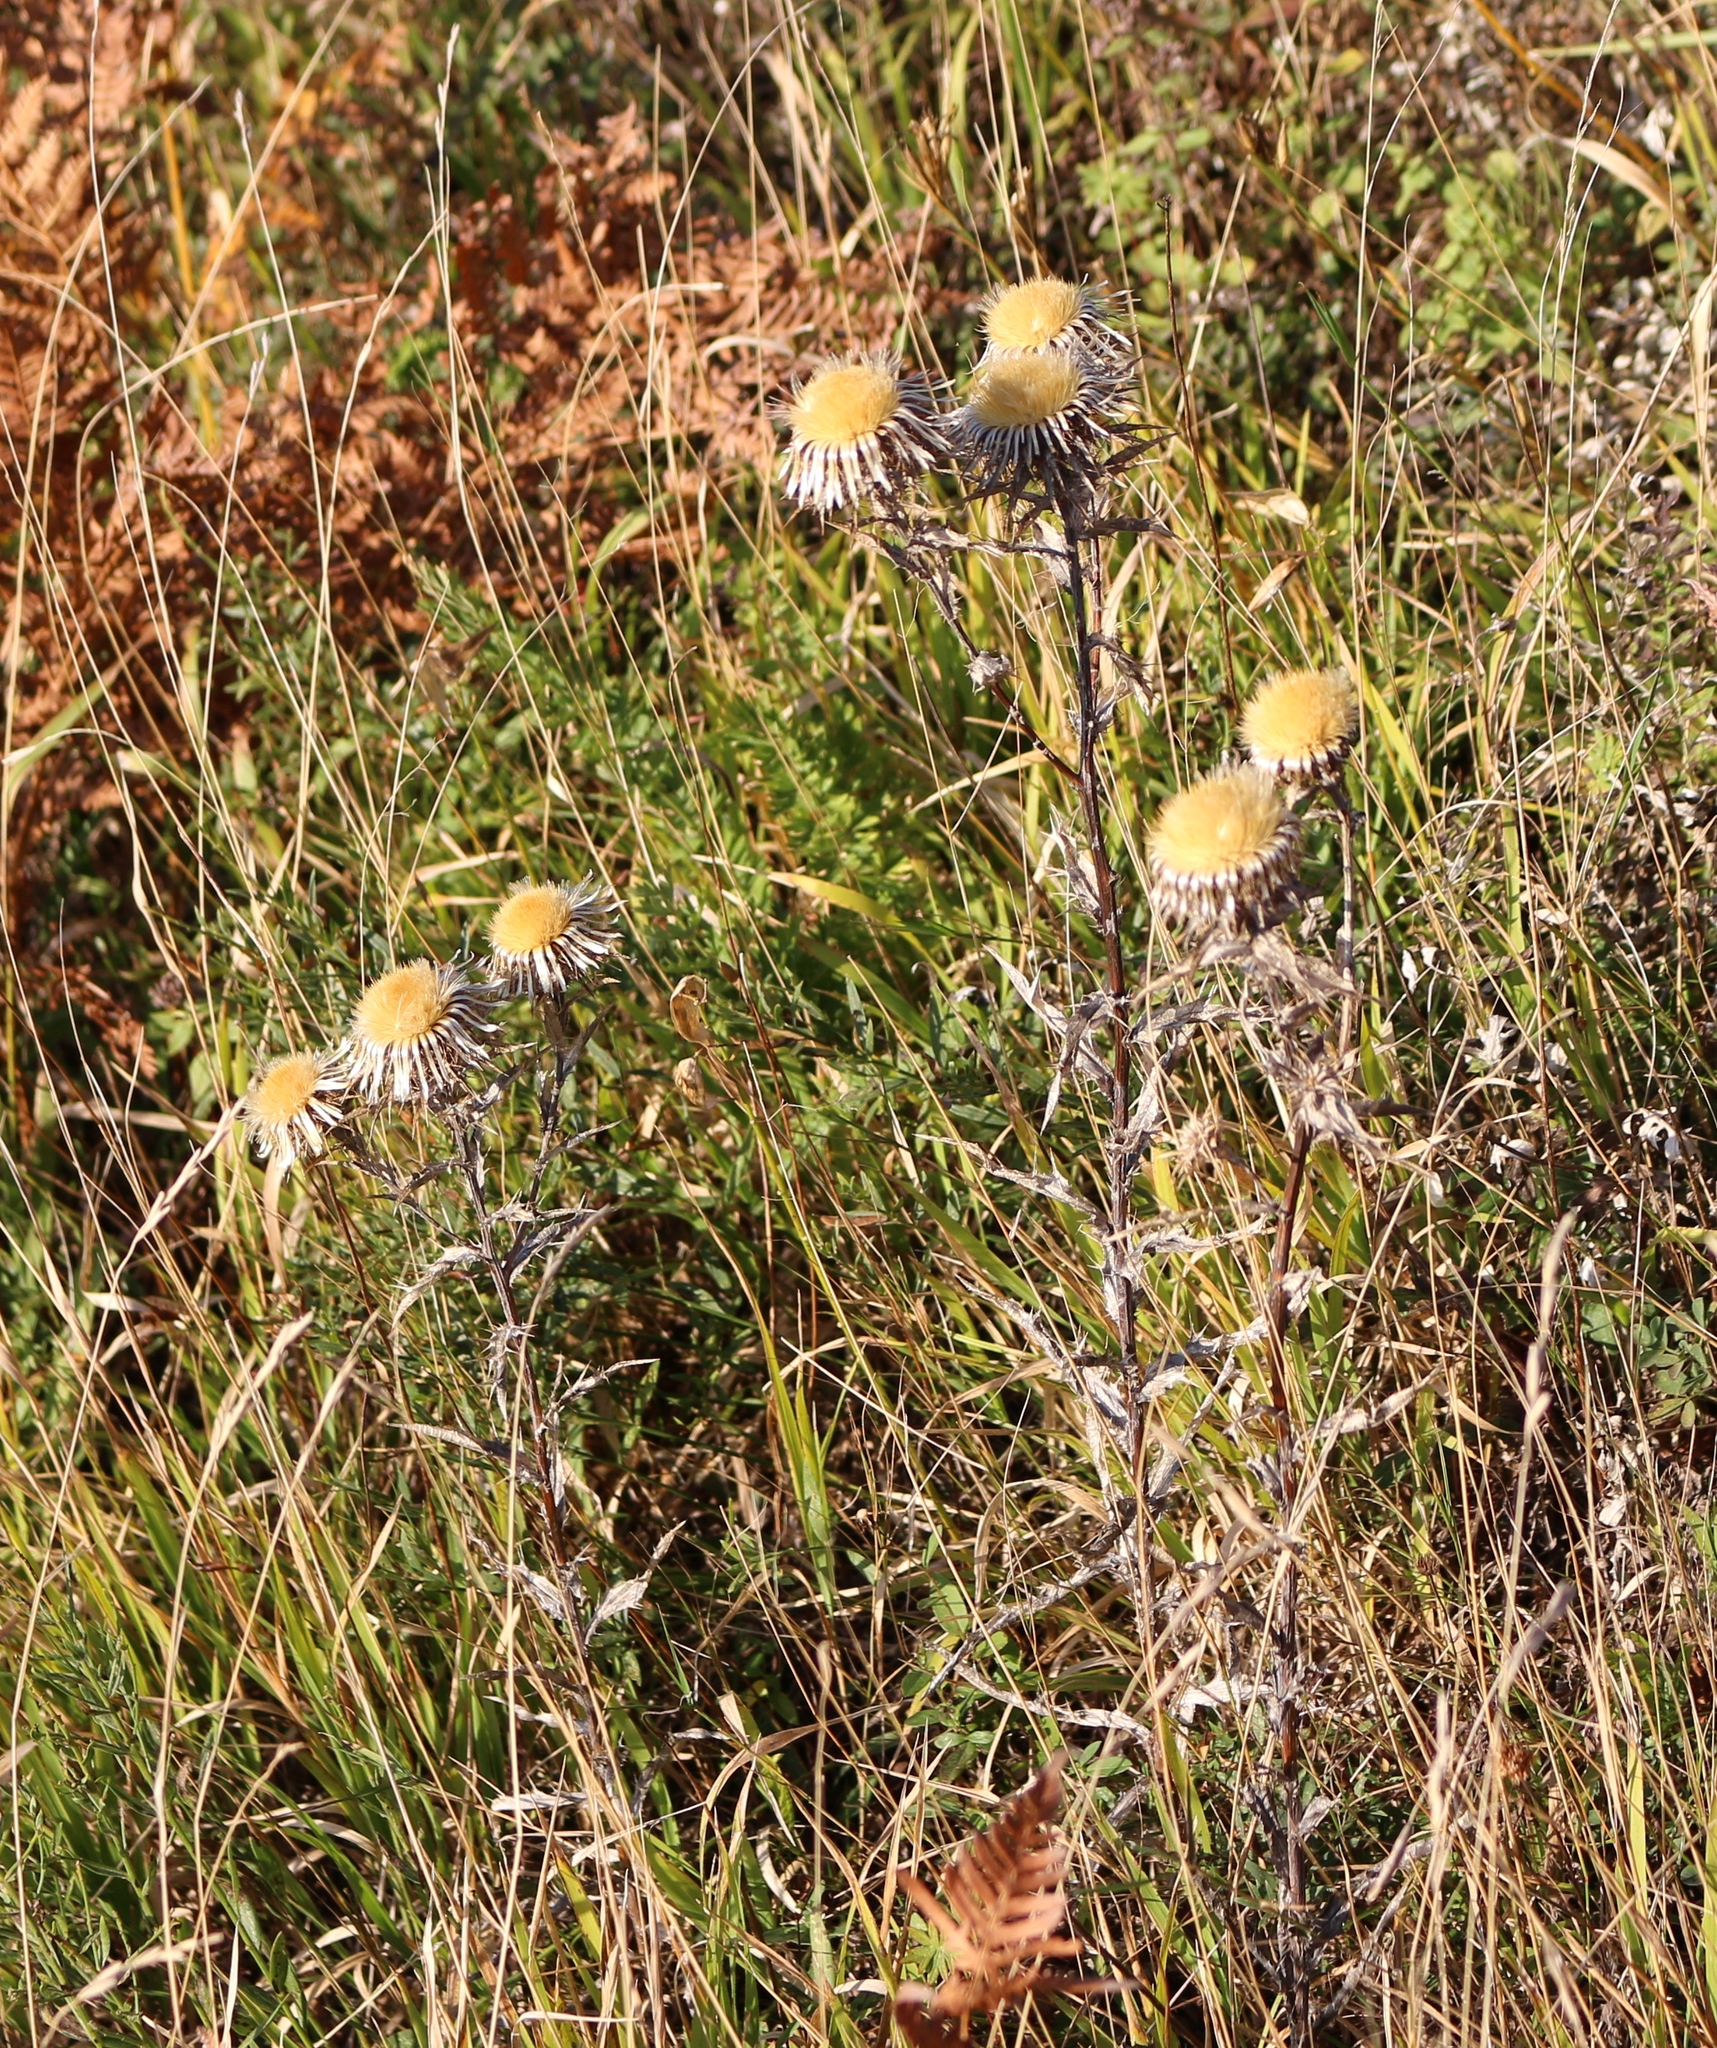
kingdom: Plantae
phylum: Tracheophyta
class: Magnoliopsida
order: Asterales
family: Asteraceae
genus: Carlina
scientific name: Carlina biebersteinii
